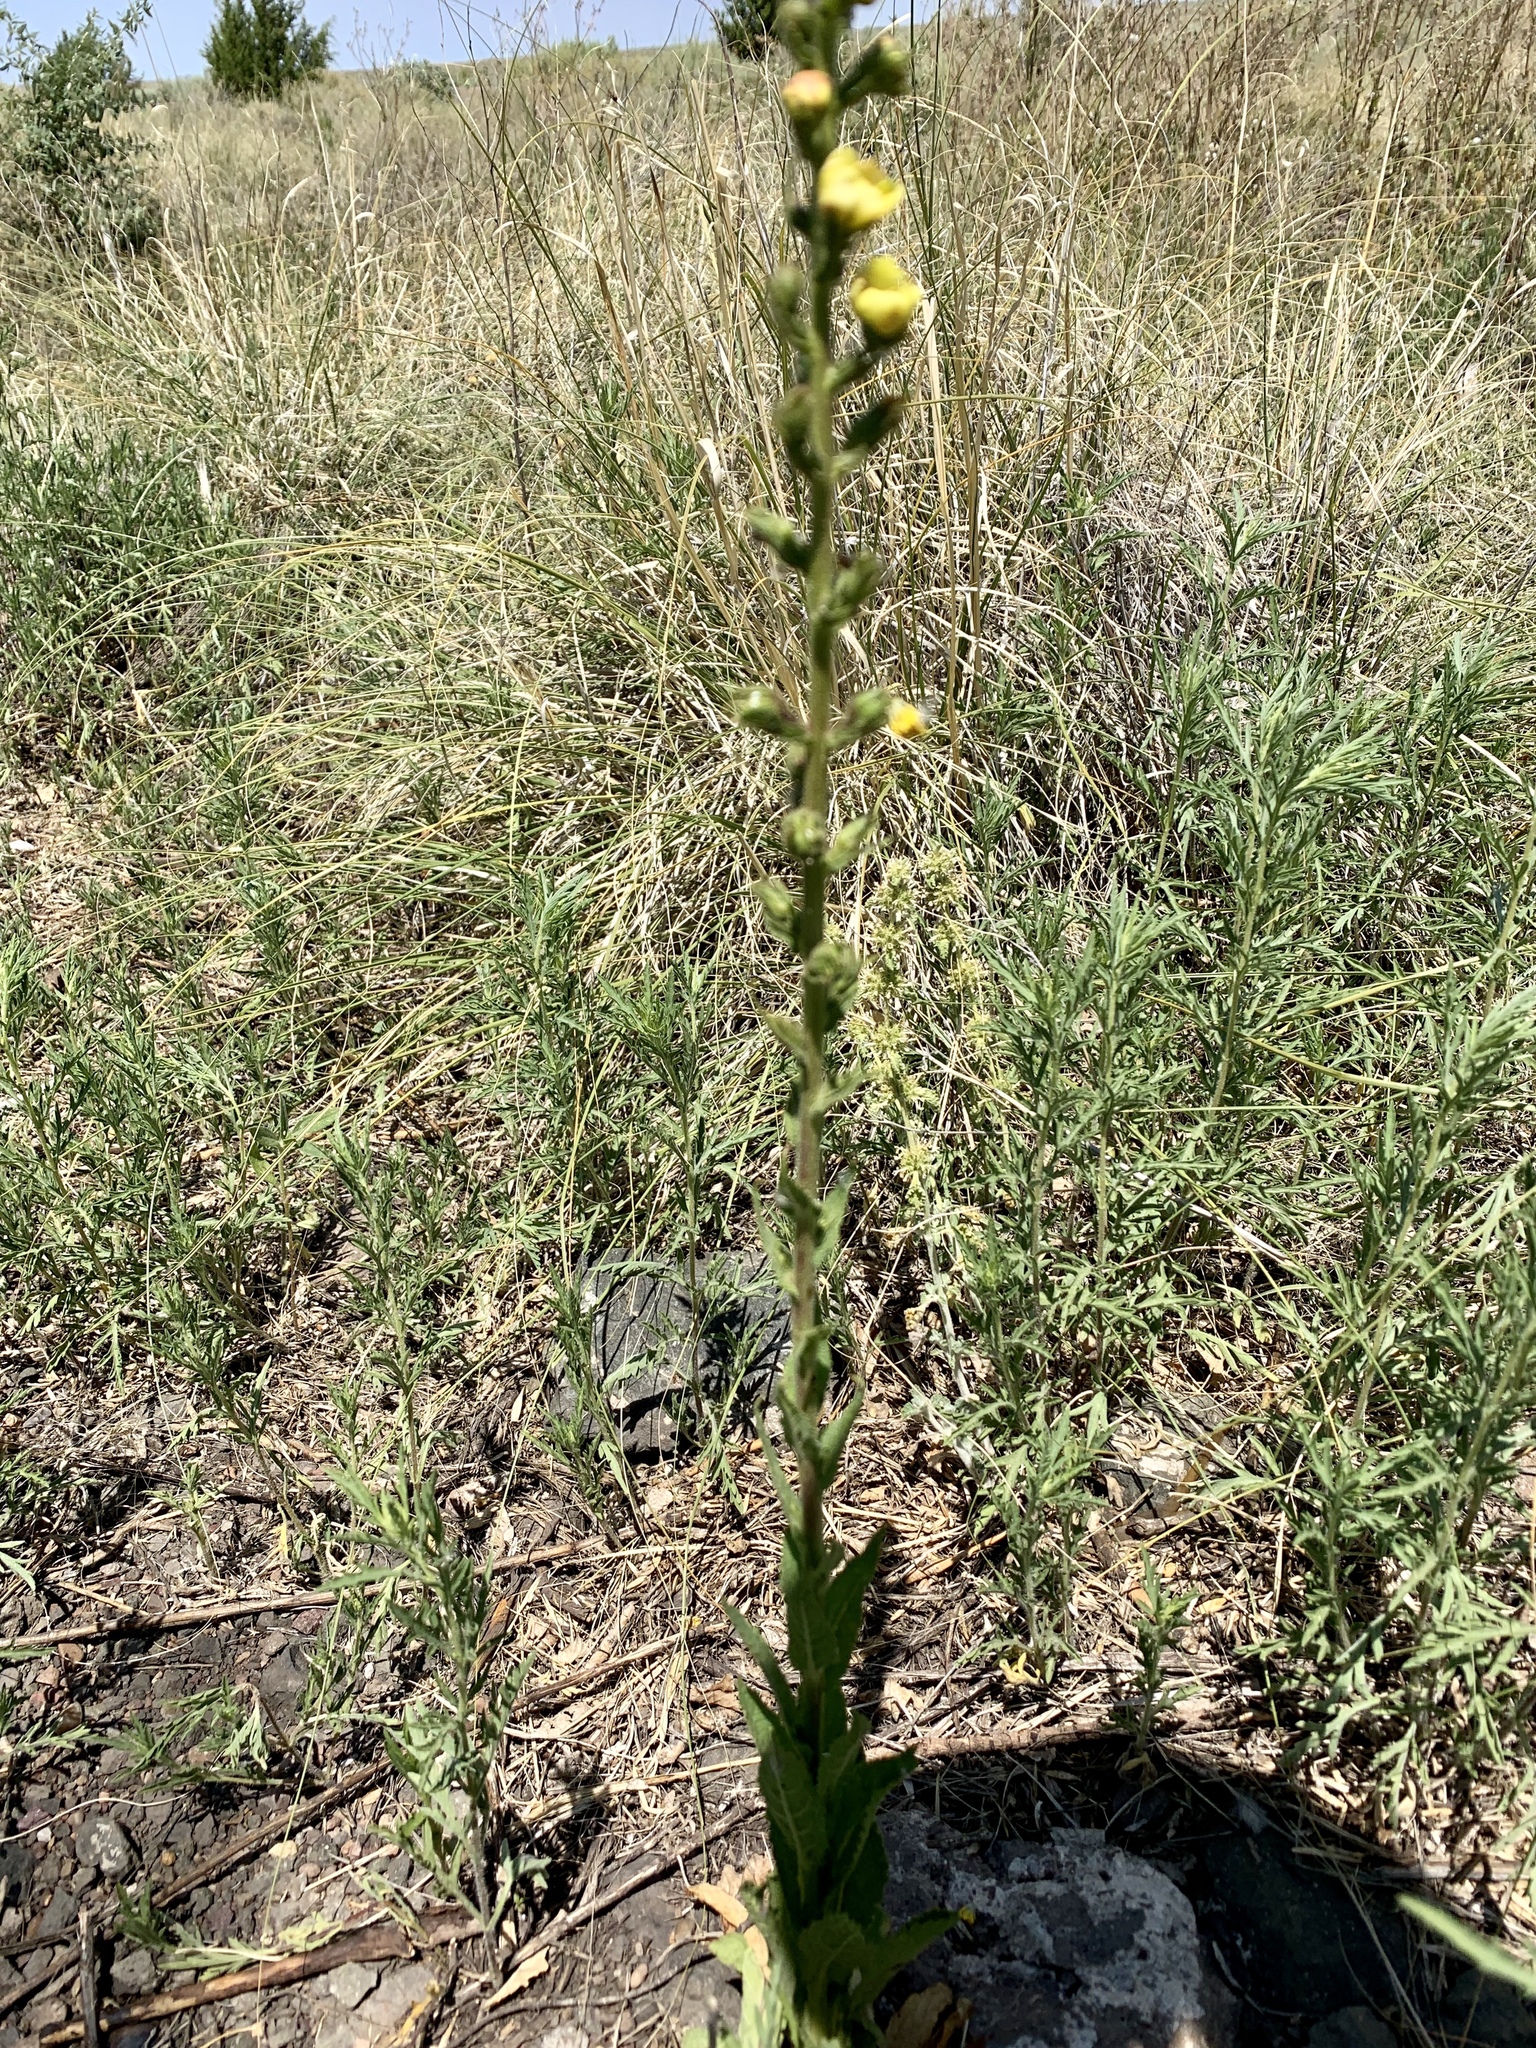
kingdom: Plantae
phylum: Tracheophyta
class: Magnoliopsida
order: Lamiales
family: Scrophulariaceae
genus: Verbascum
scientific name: Verbascum virgatum
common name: Twiggy mullein
